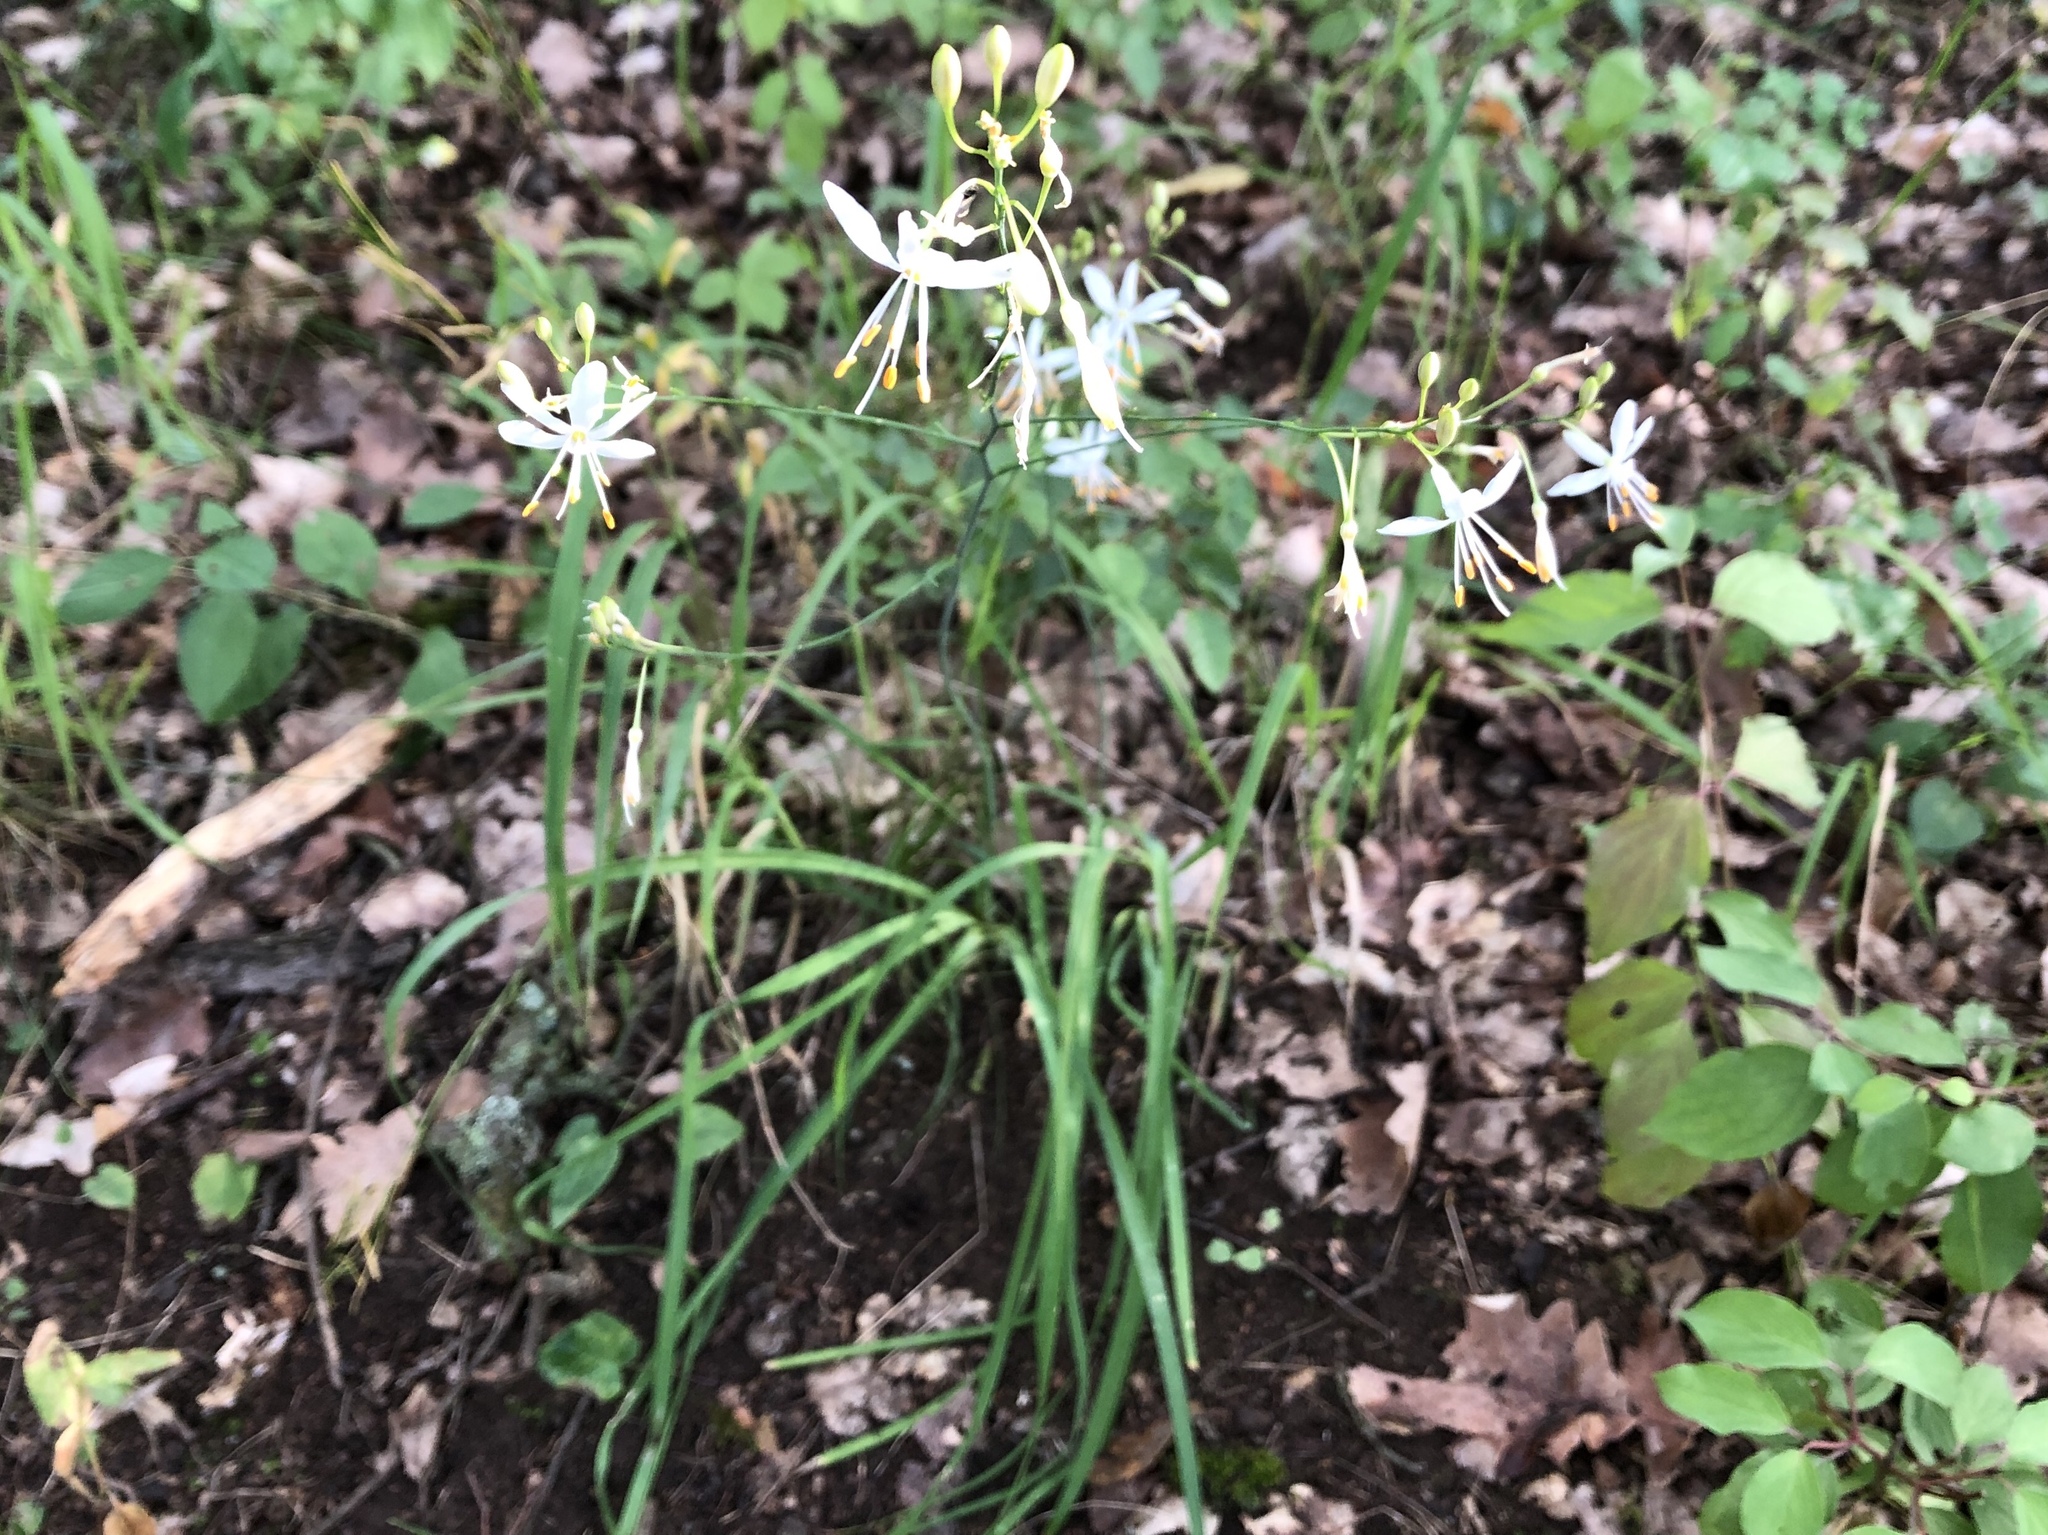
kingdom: Plantae
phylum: Tracheophyta
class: Liliopsida
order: Asparagales
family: Asparagaceae
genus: Anthericum
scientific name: Anthericum ramosum
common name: Branched st. bernard's-lily
